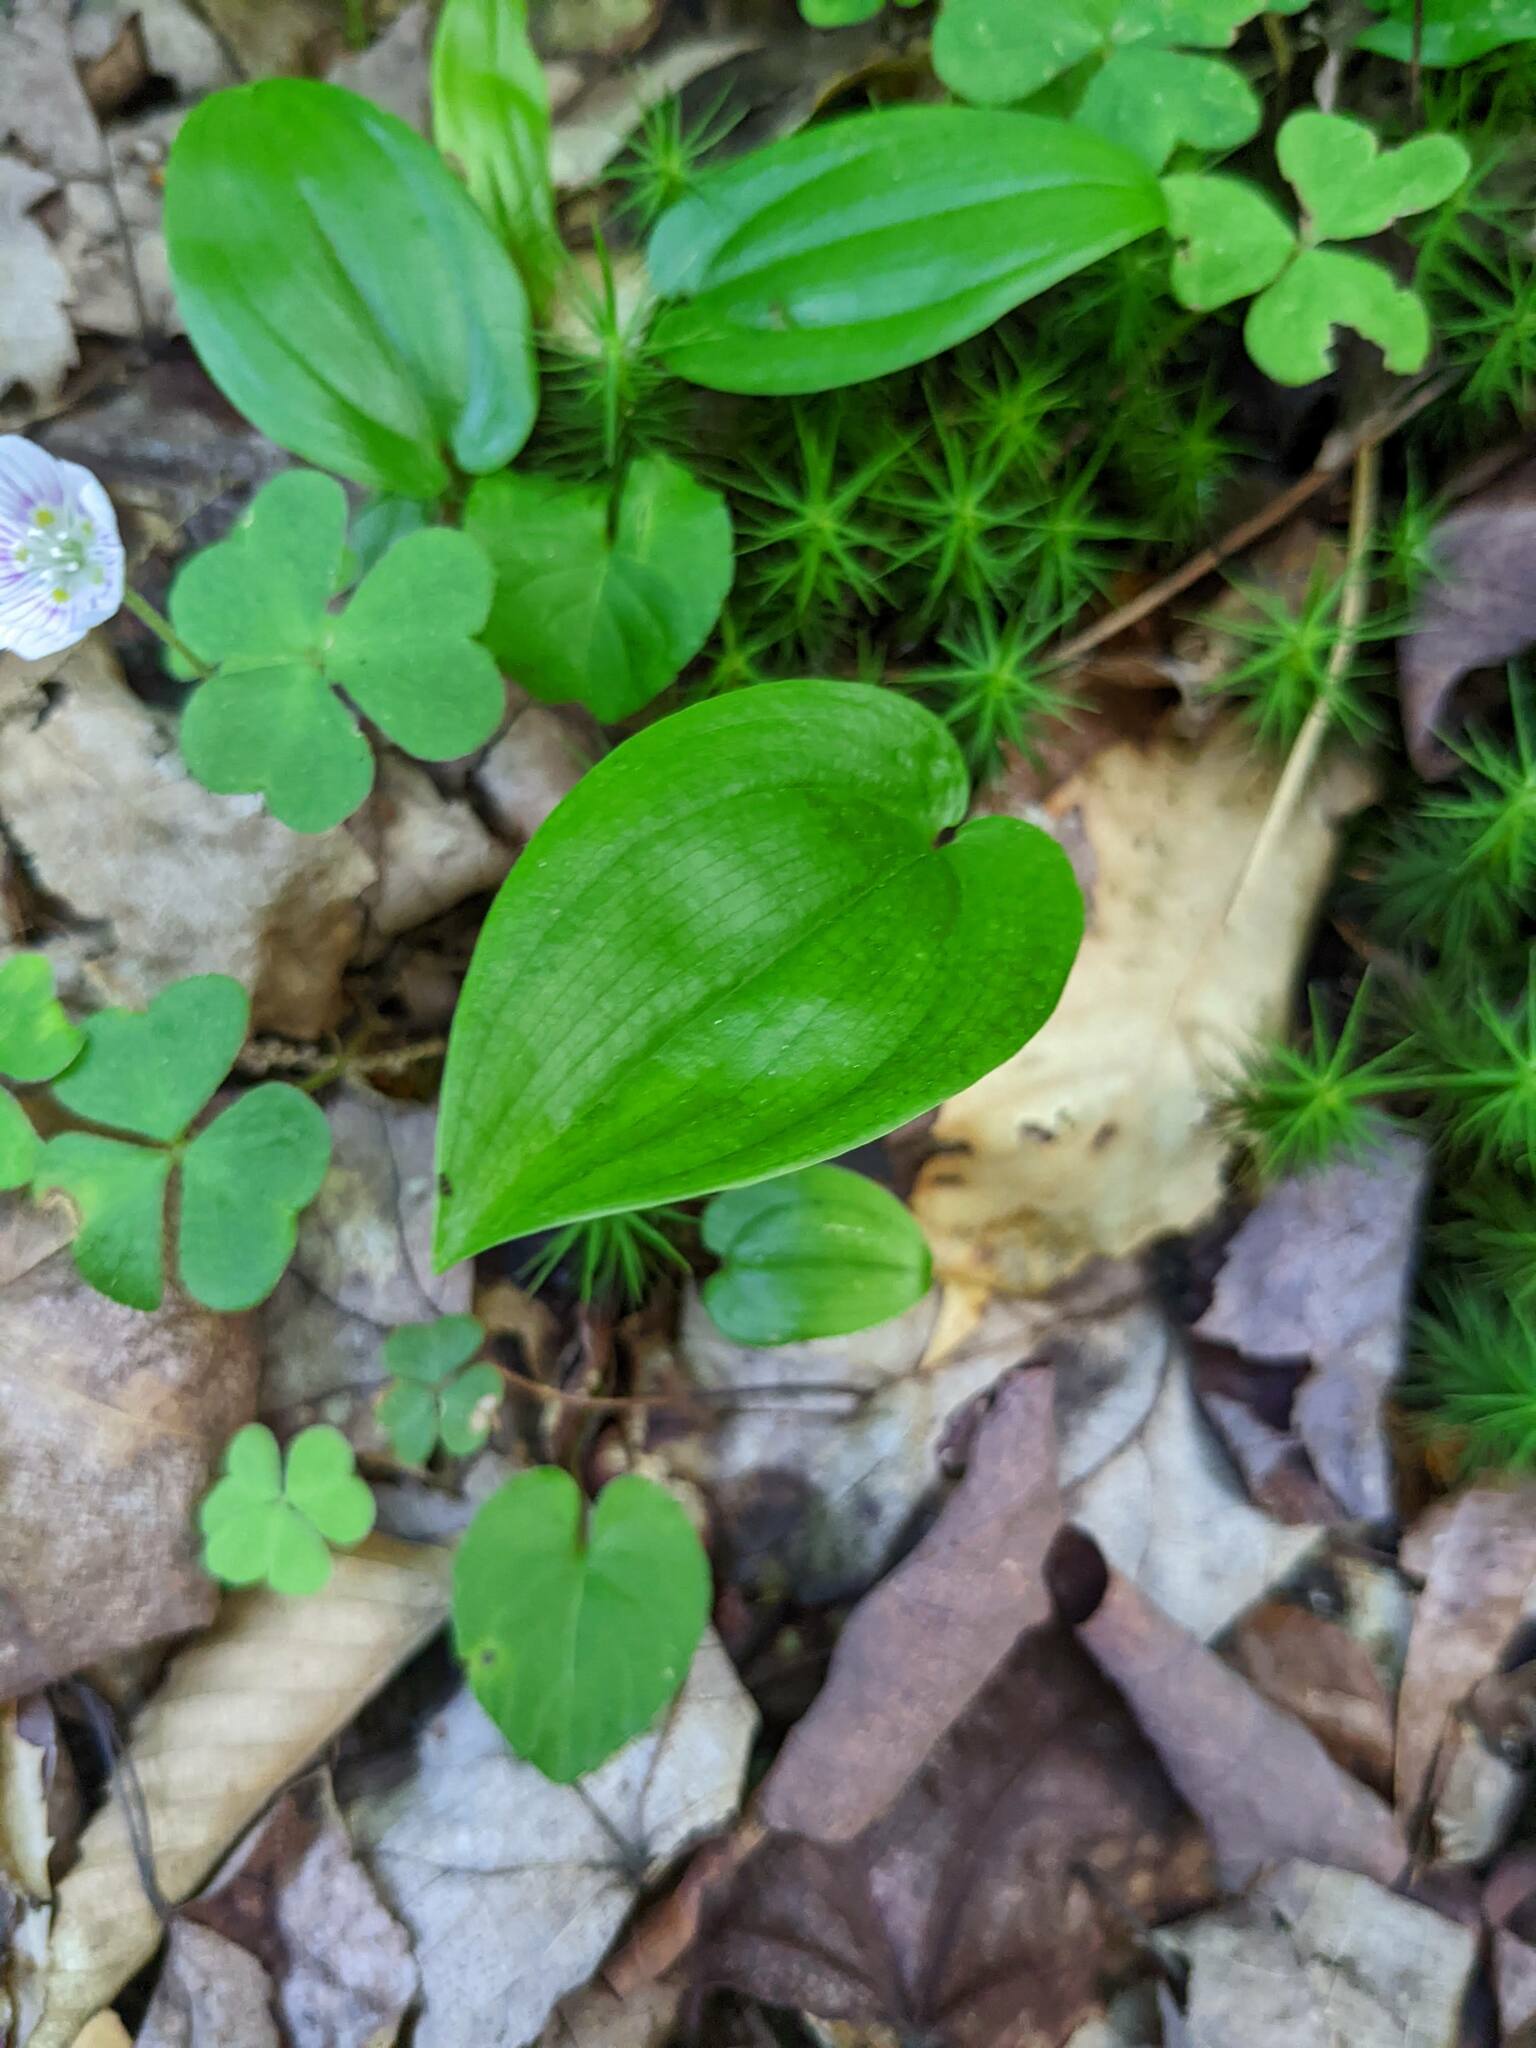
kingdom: Plantae
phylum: Tracheophyta
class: Liliopsida
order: Asparagales
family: Asparagaceae
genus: Maianthemum
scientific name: Maianthemum canadense
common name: False lily-of-the-valley
